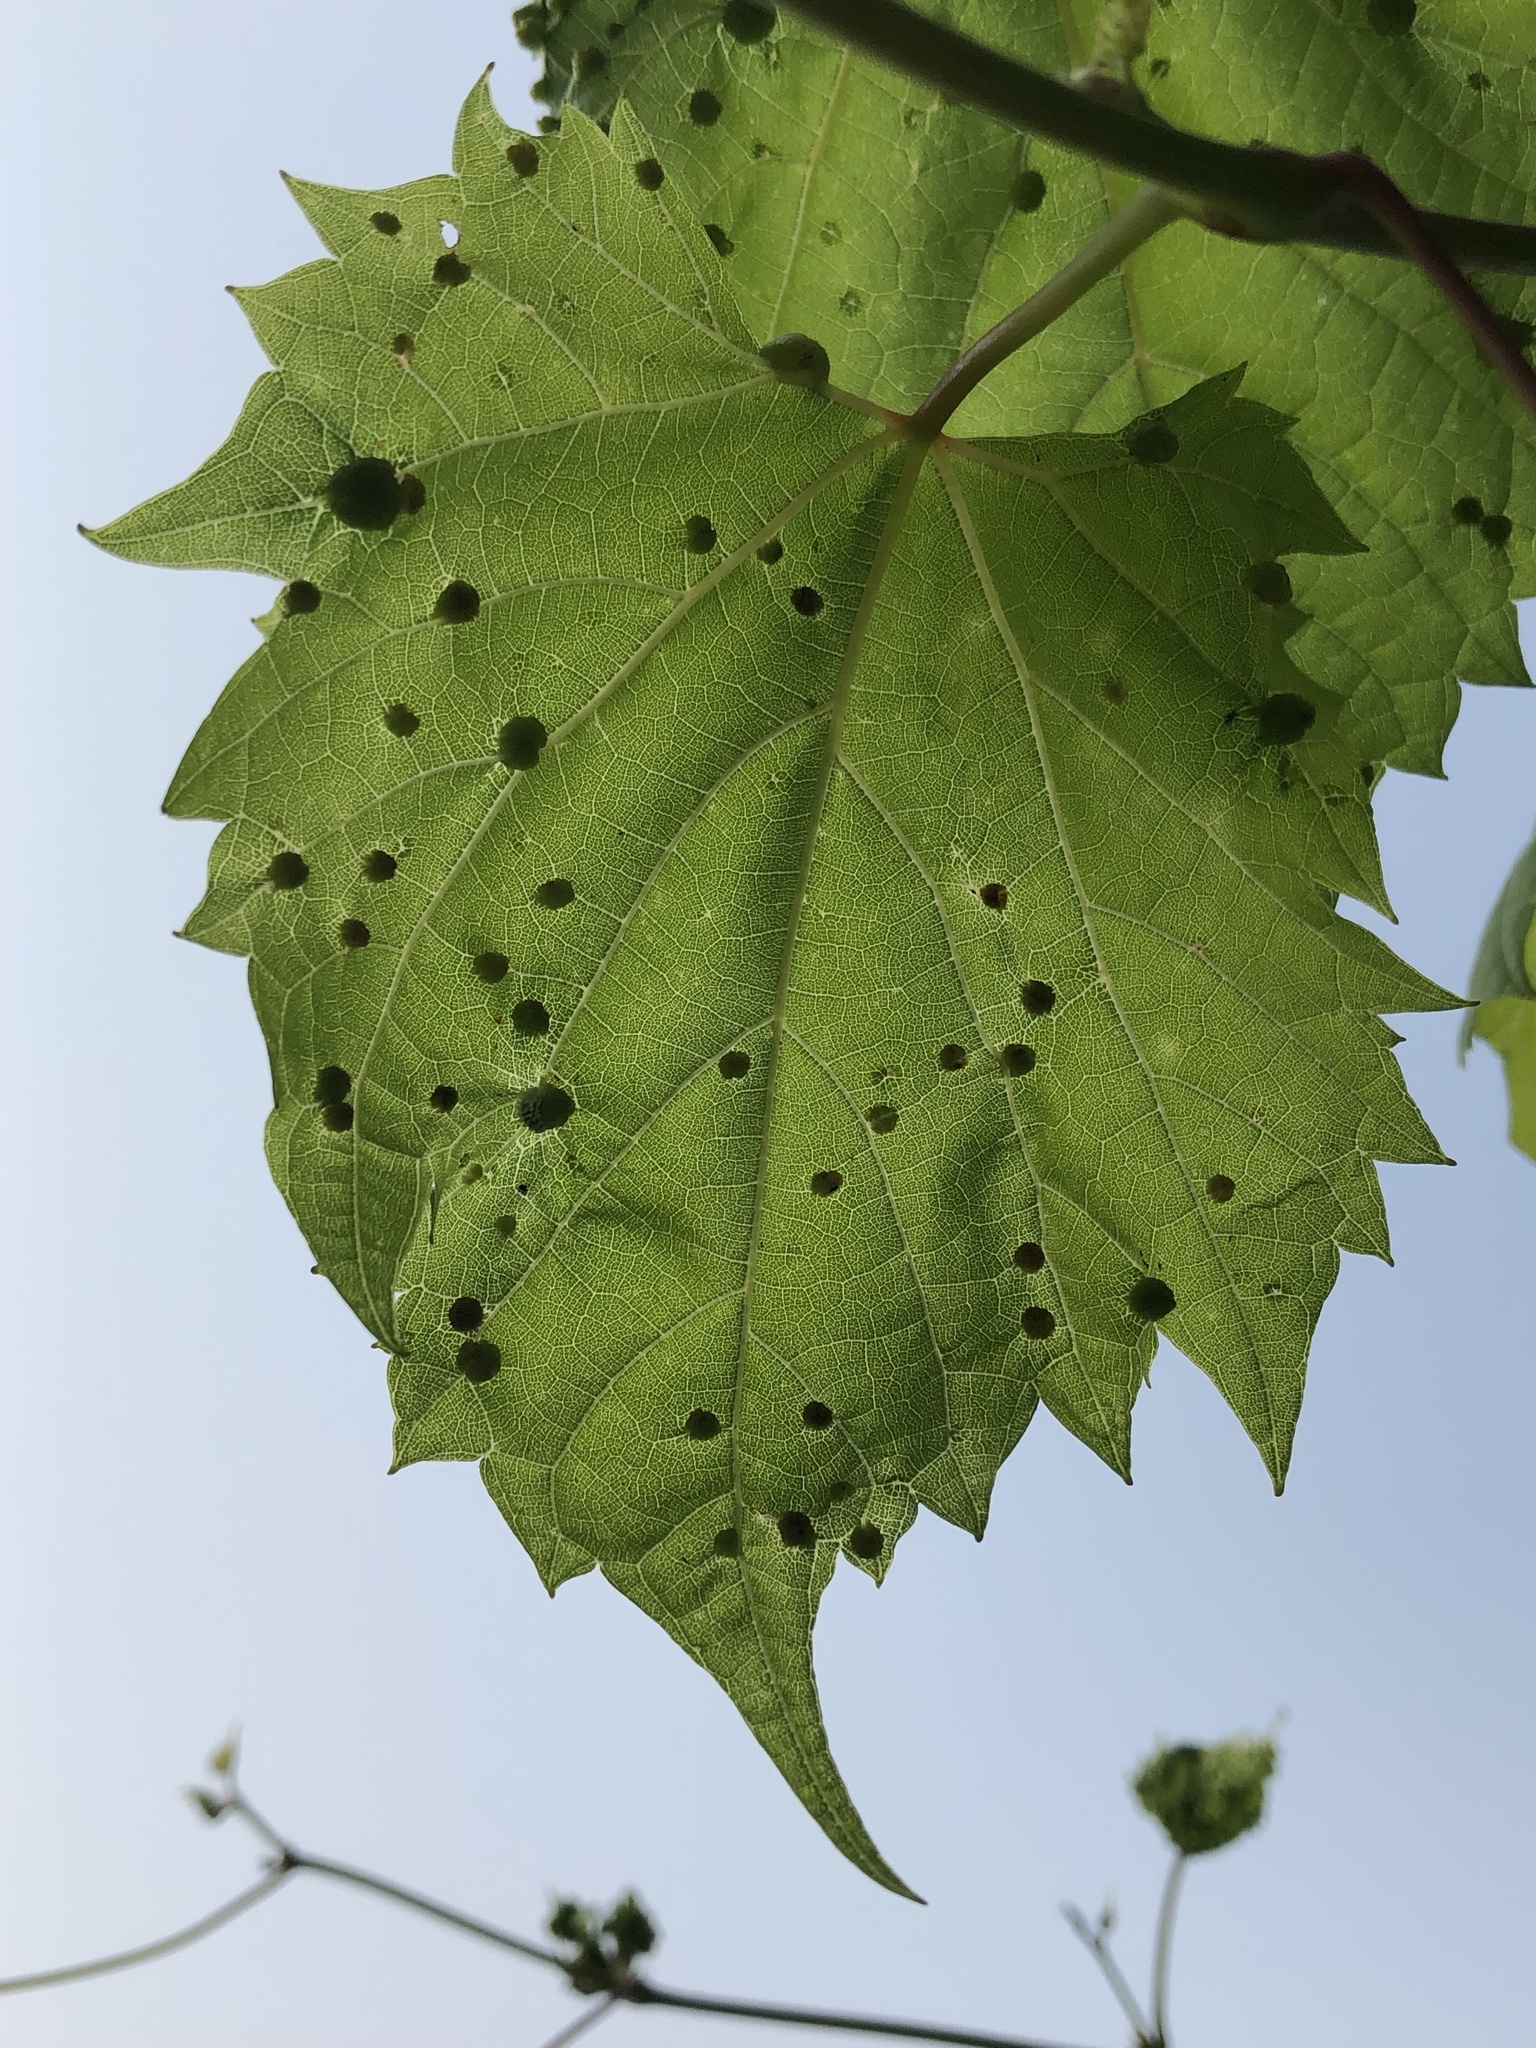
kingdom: Animalia
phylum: Arthropoda
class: Insecta
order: Hemiptera
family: Phylloxeridae
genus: Daktulosphaira
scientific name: Daktulosphaira vitifoliae
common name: Grape phylloxera
